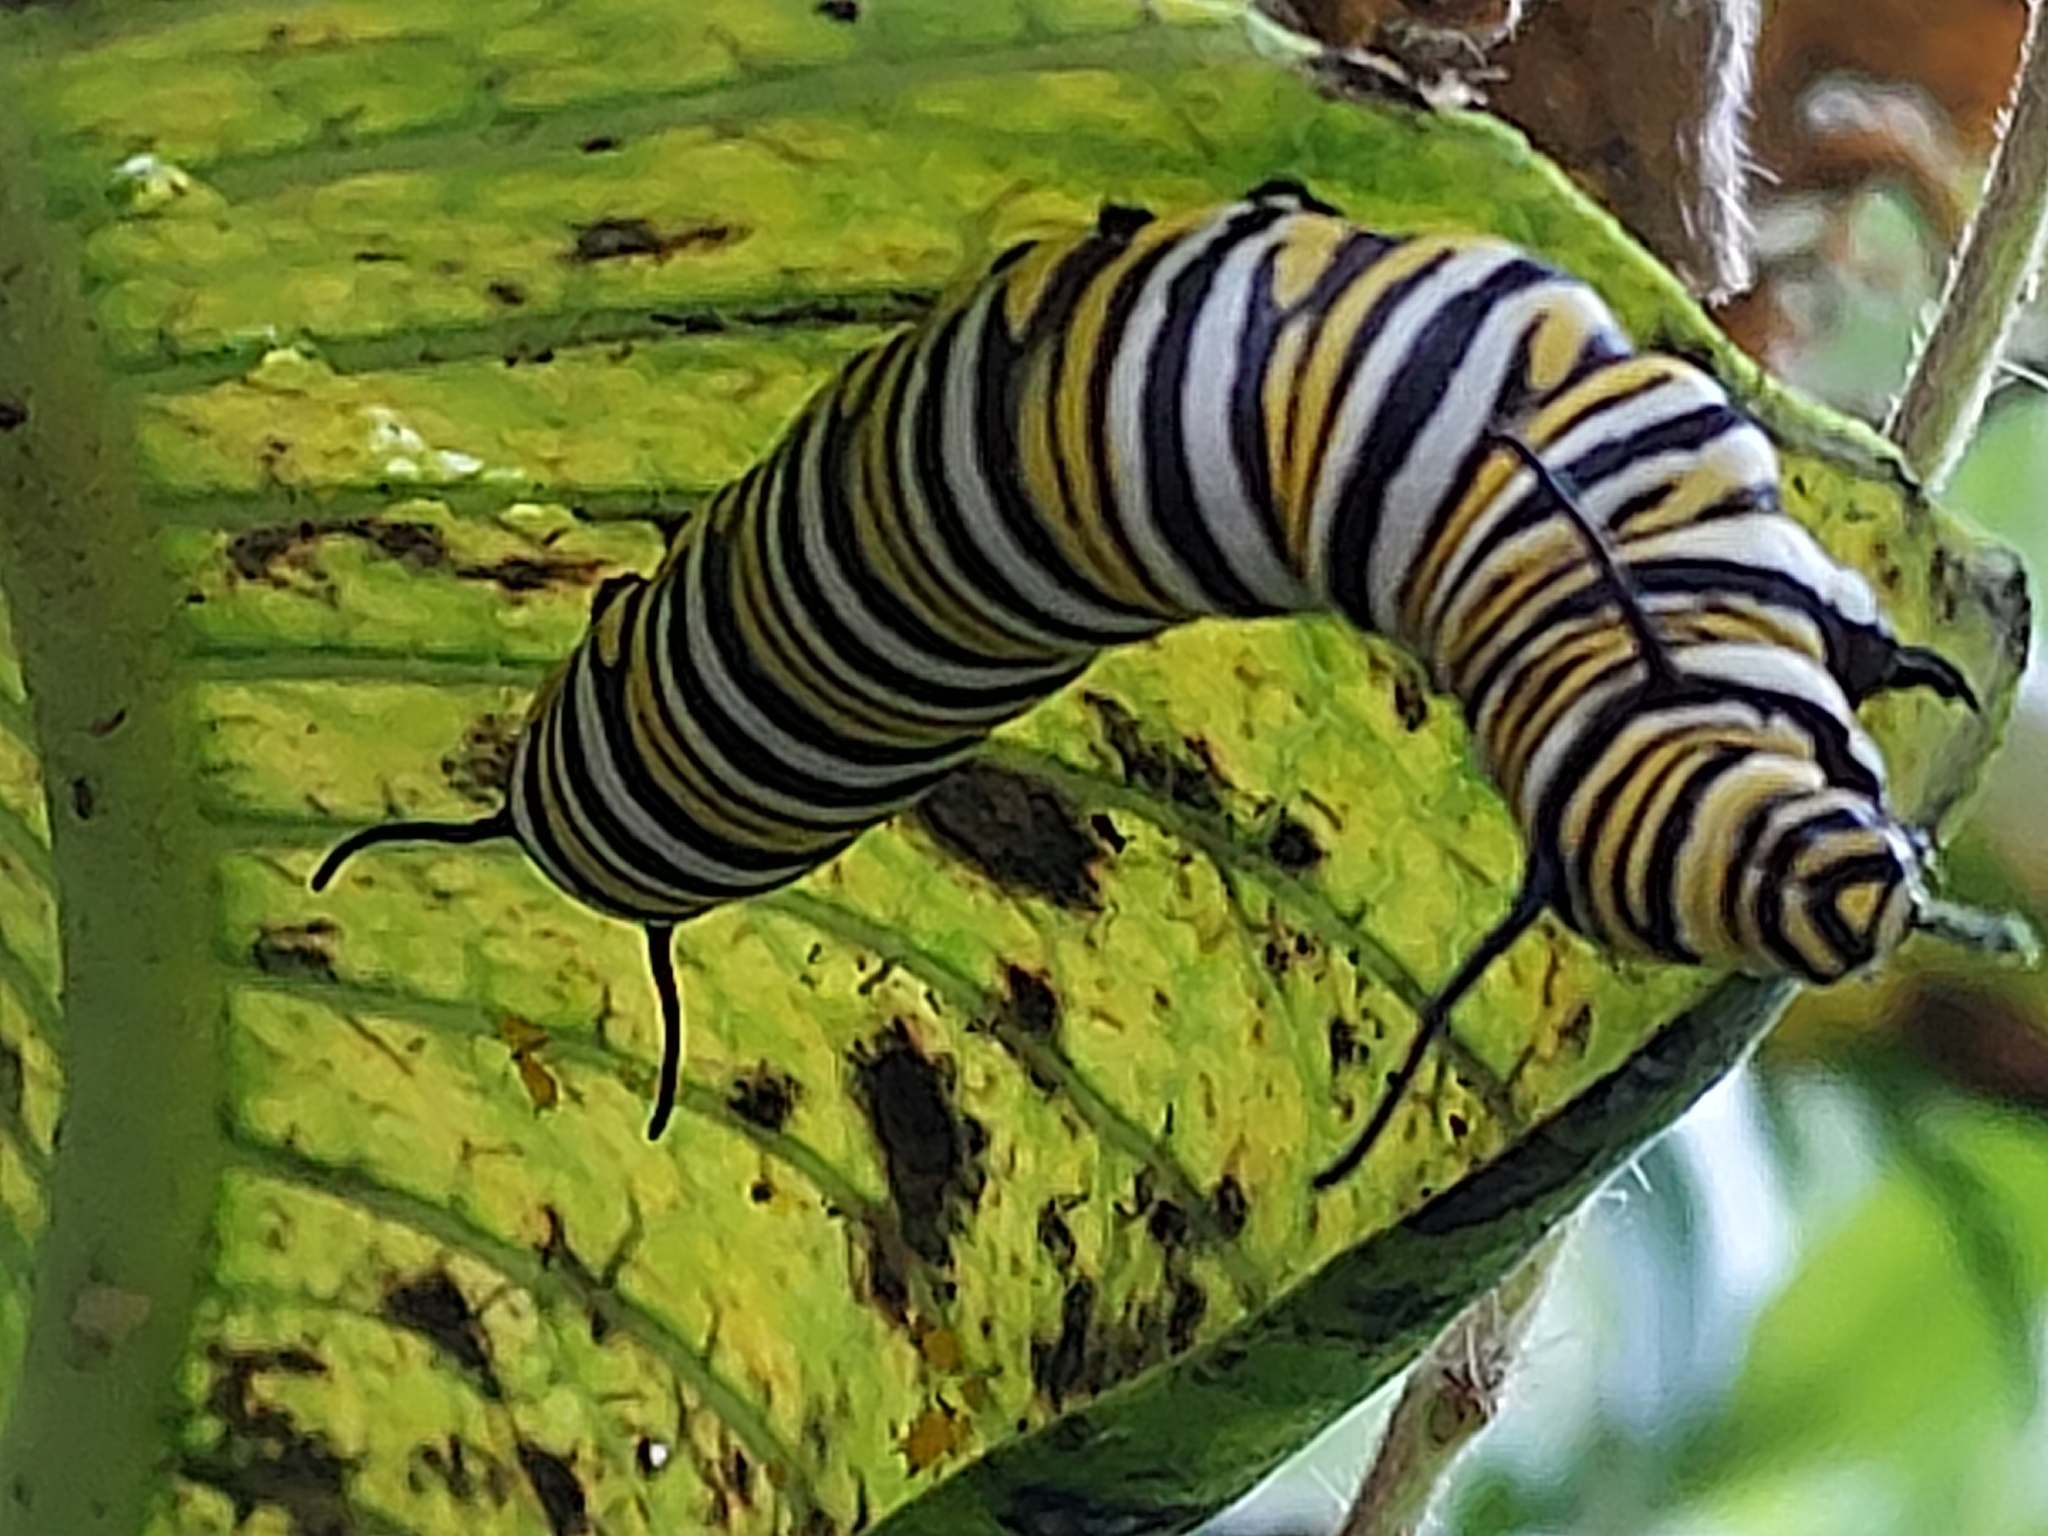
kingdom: Animalia
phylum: Arthropoda
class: Insecta
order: Lepidoptera
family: Nymphalidae
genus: Danaus
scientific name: Danaus plexippus
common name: Monarch
